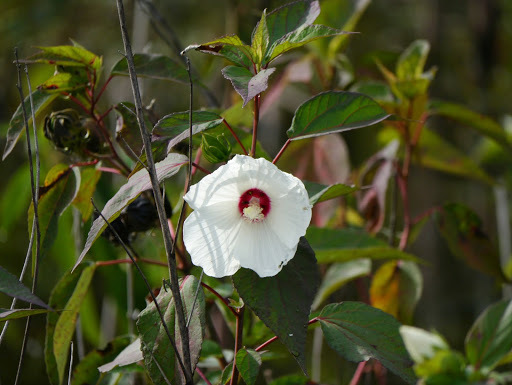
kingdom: Plantae
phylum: Tracheophyta
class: Magnoliopsida
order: Malvales
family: Malvaceae
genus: Hibiscus
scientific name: Hibiscus moscheutos
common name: Common rose-mallow
